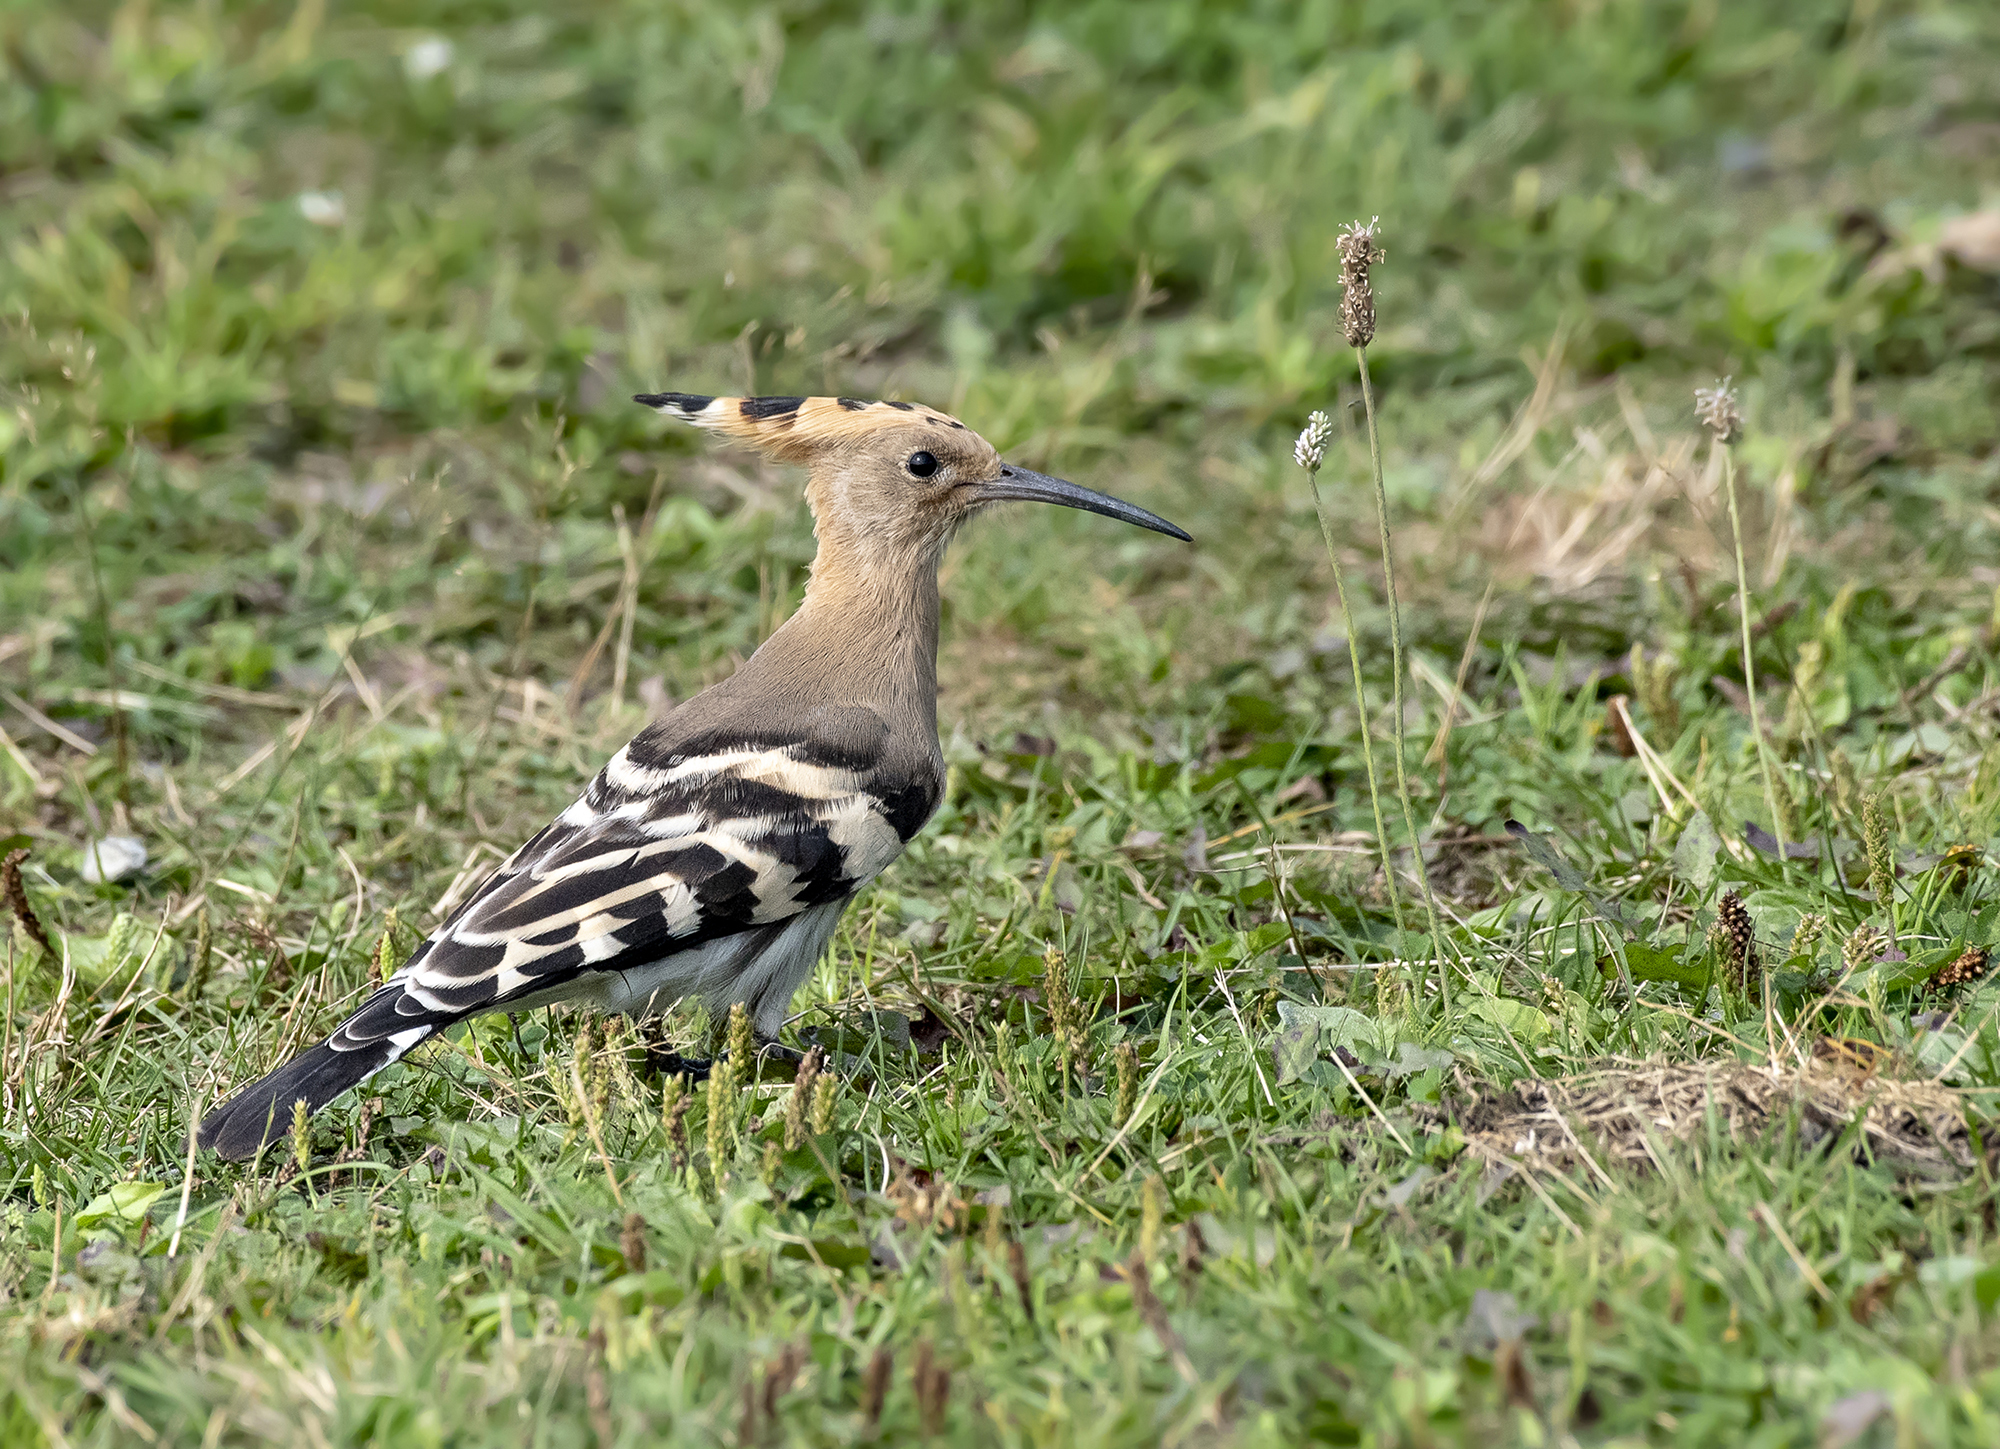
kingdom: Animalia
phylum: Chordata
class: Aves
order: Bucerotiformes
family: Upupidae
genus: Upupa
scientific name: Upupa epops
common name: Eurasian hoopoe
